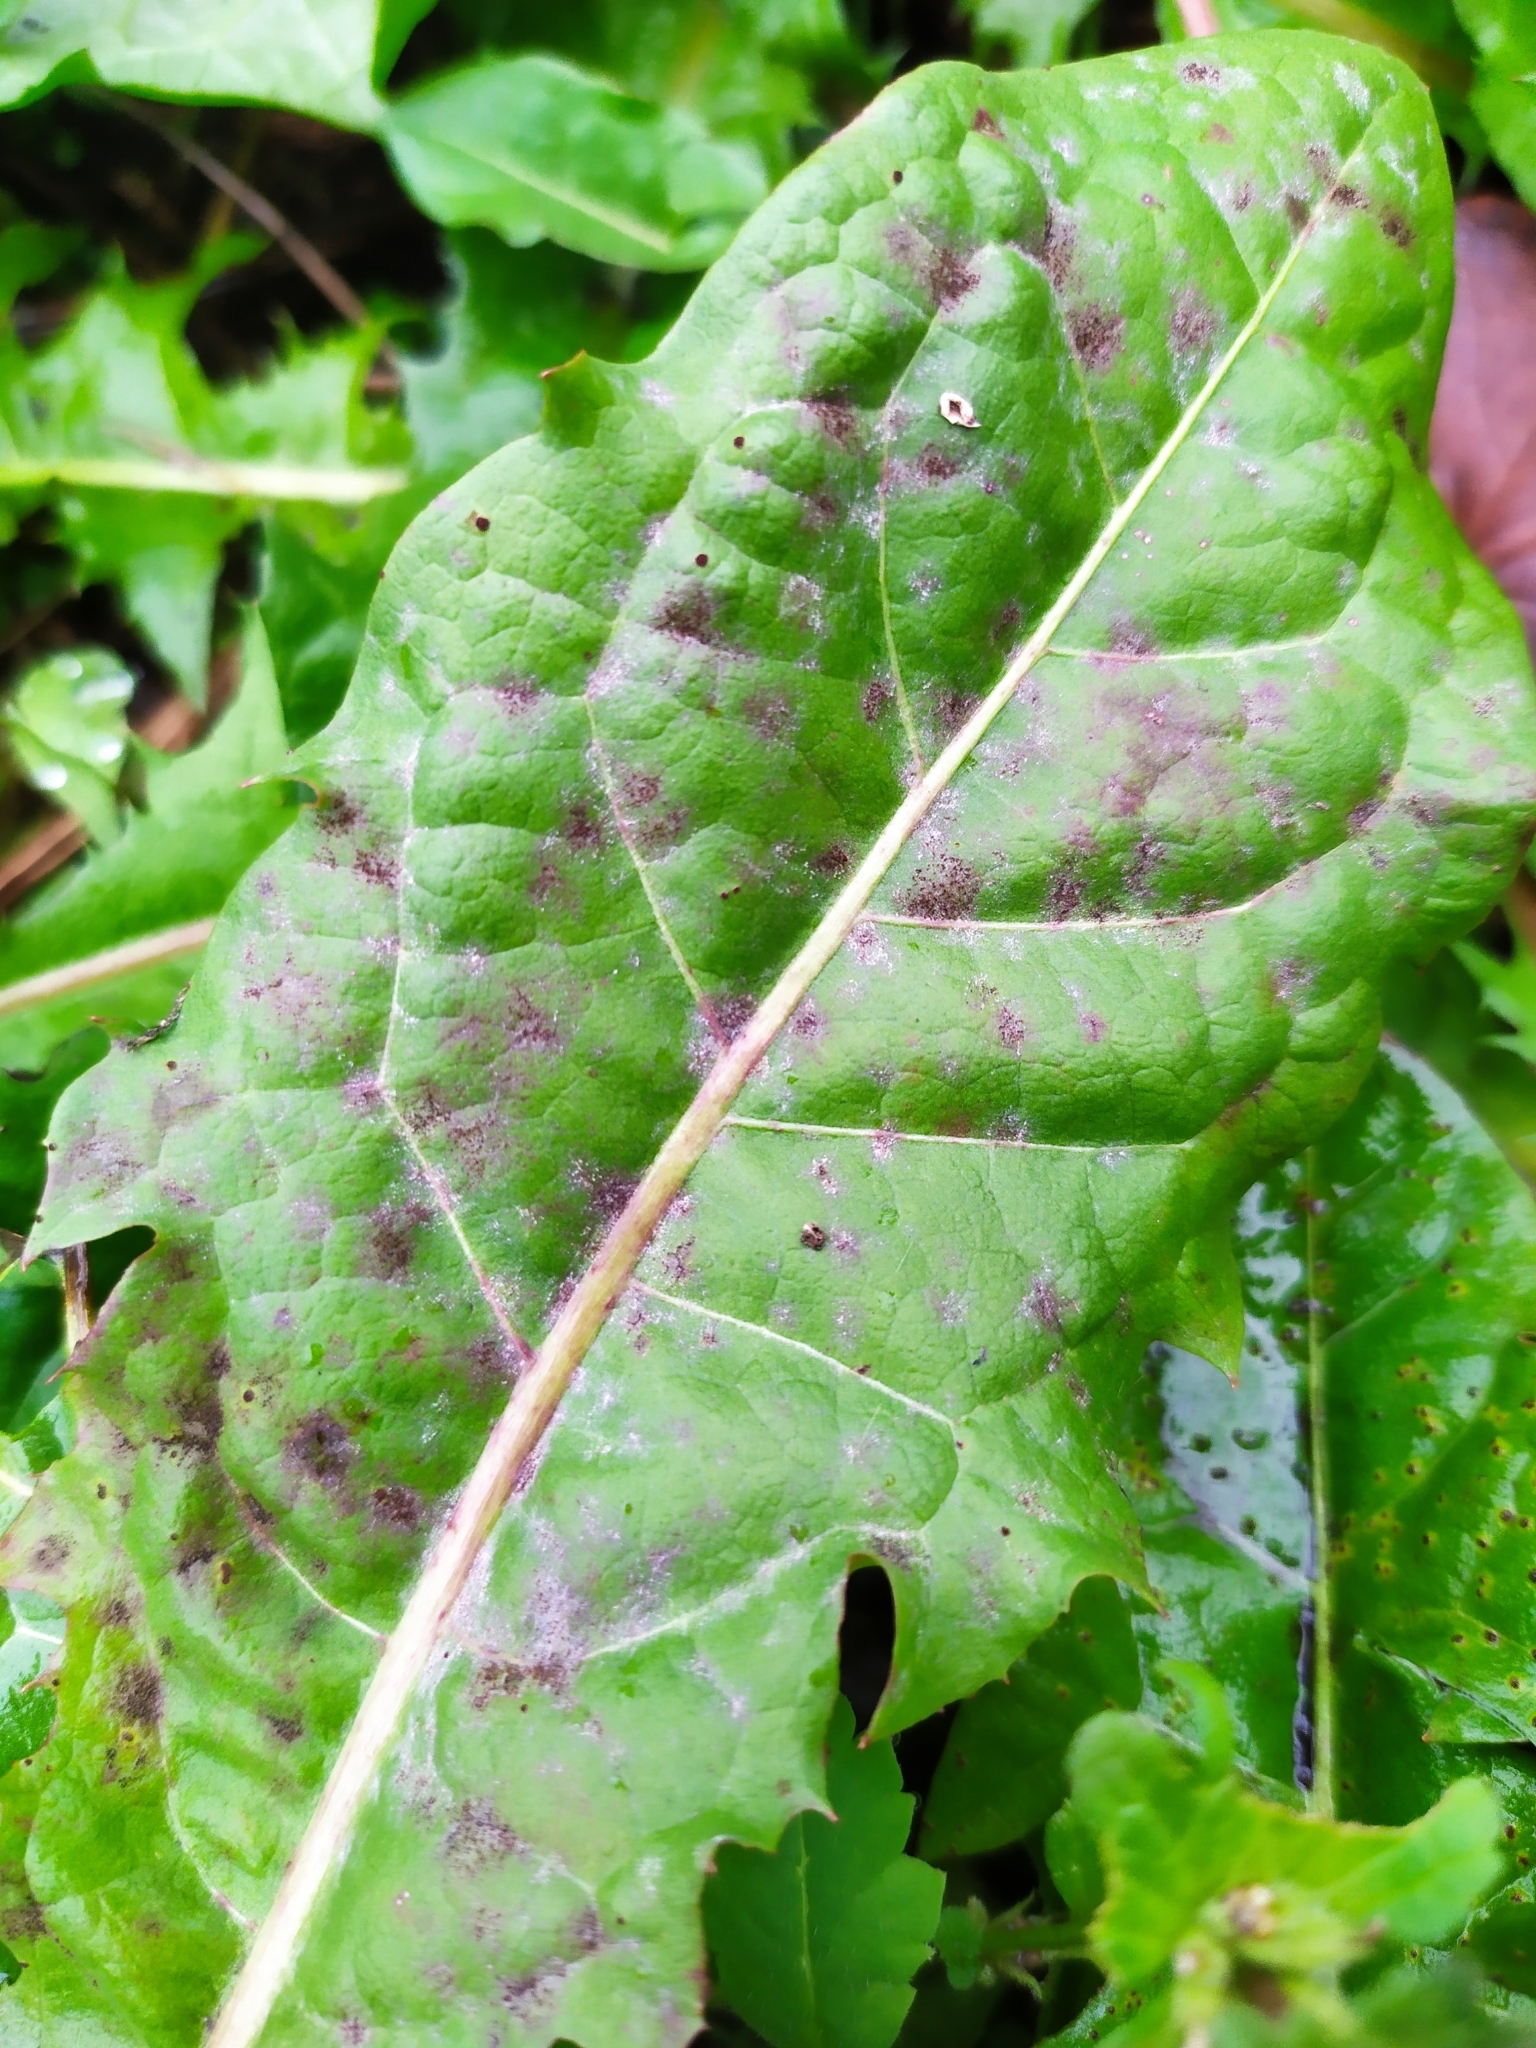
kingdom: Fungi
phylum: Ascomycota
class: Leotiomycetes
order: Helotiales
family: Erysiphaceae
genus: Podosphaera
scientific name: Podosphaera erigerontis-canadensis
